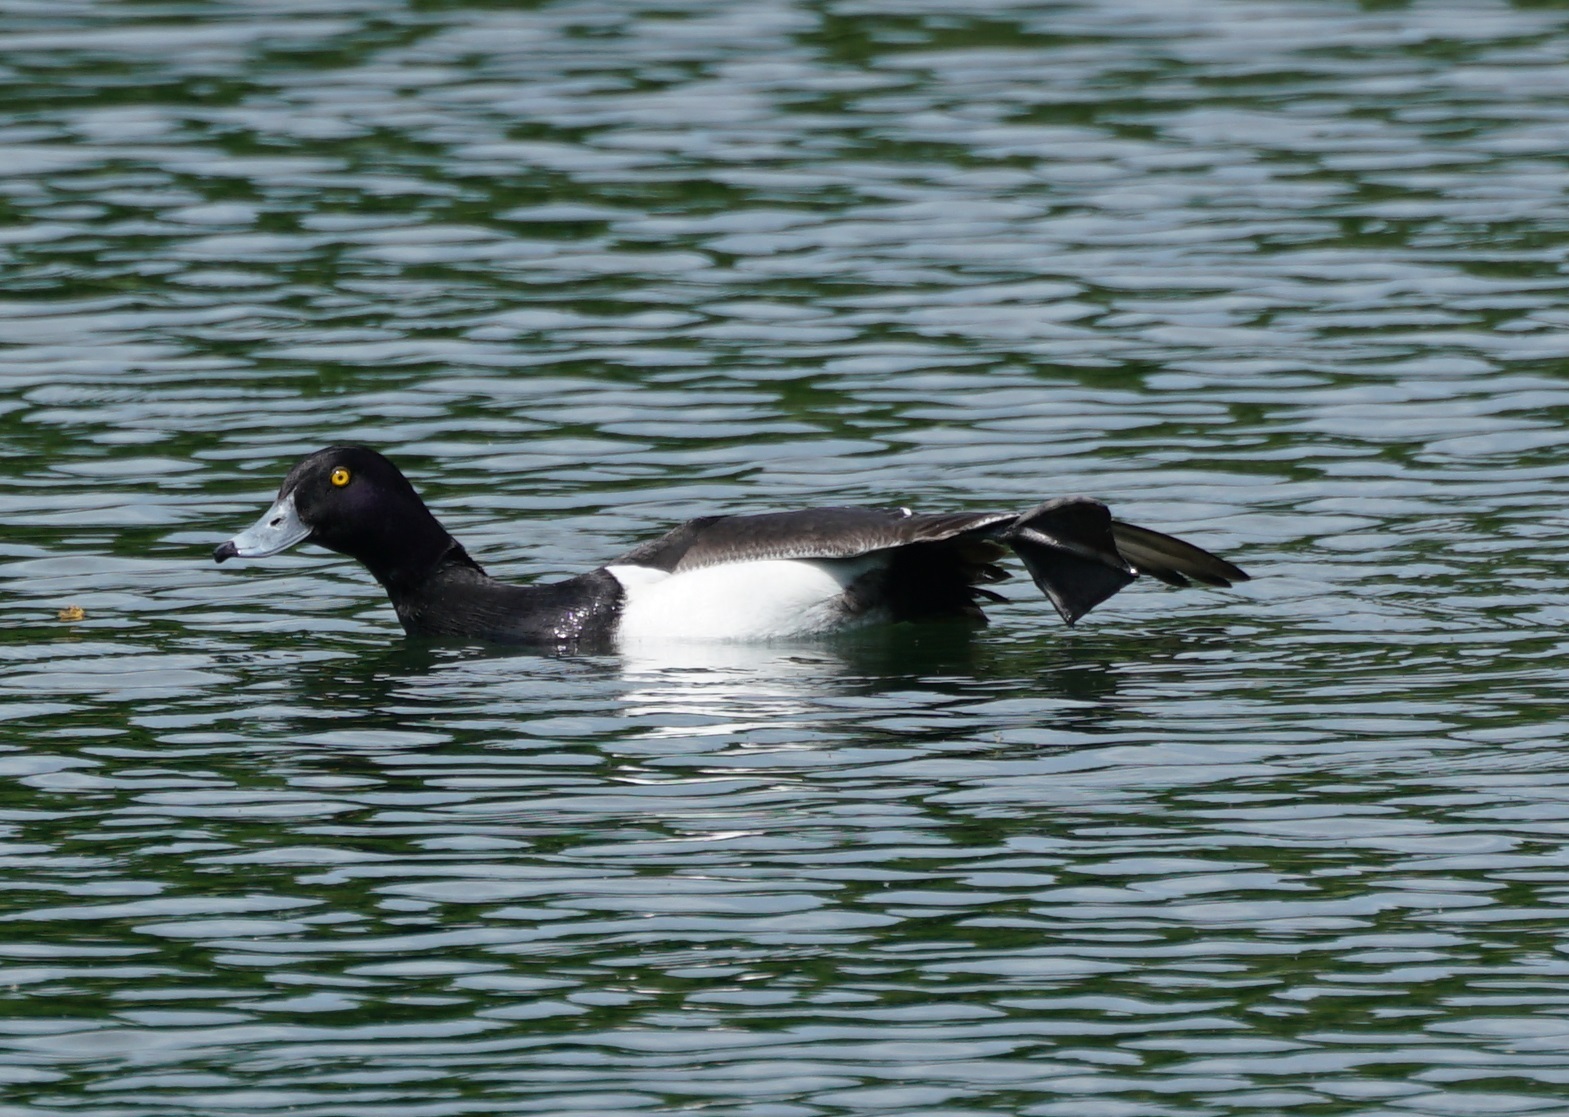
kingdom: Animalia
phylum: Chordata
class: Aves
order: Anseriformes
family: Anatidae
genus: Aythya
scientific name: Aythya fuligula
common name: Tufted duck
